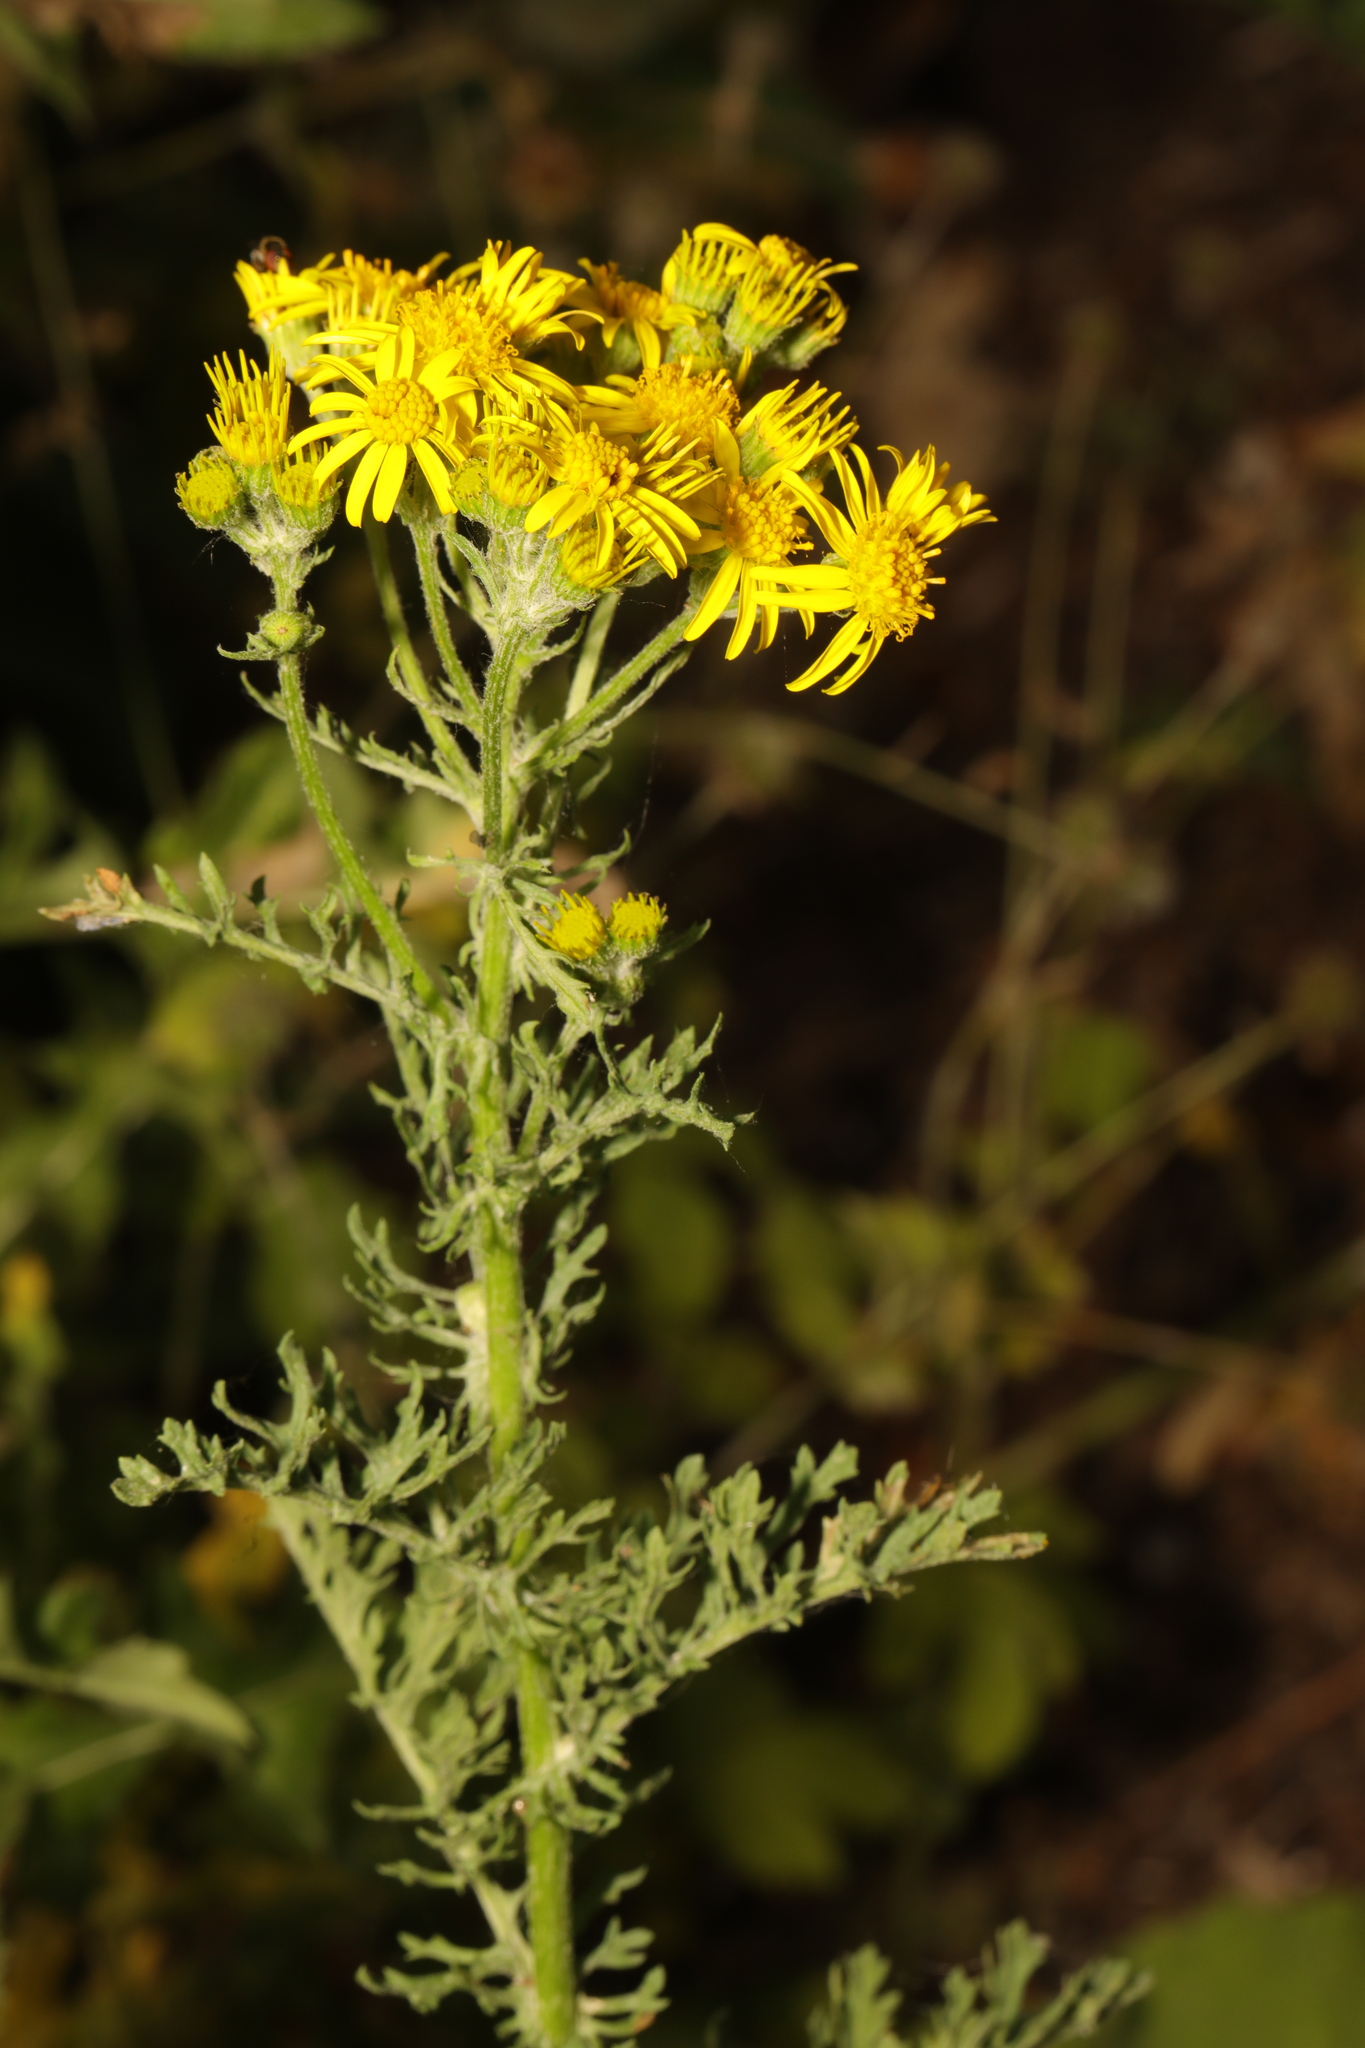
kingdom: Plantae
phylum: Tracheophyta
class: Magnoliopsida
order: Asterales
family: Asteraceae
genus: Jacobaea
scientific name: Jacobaea vulgaris
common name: Stinking willie
